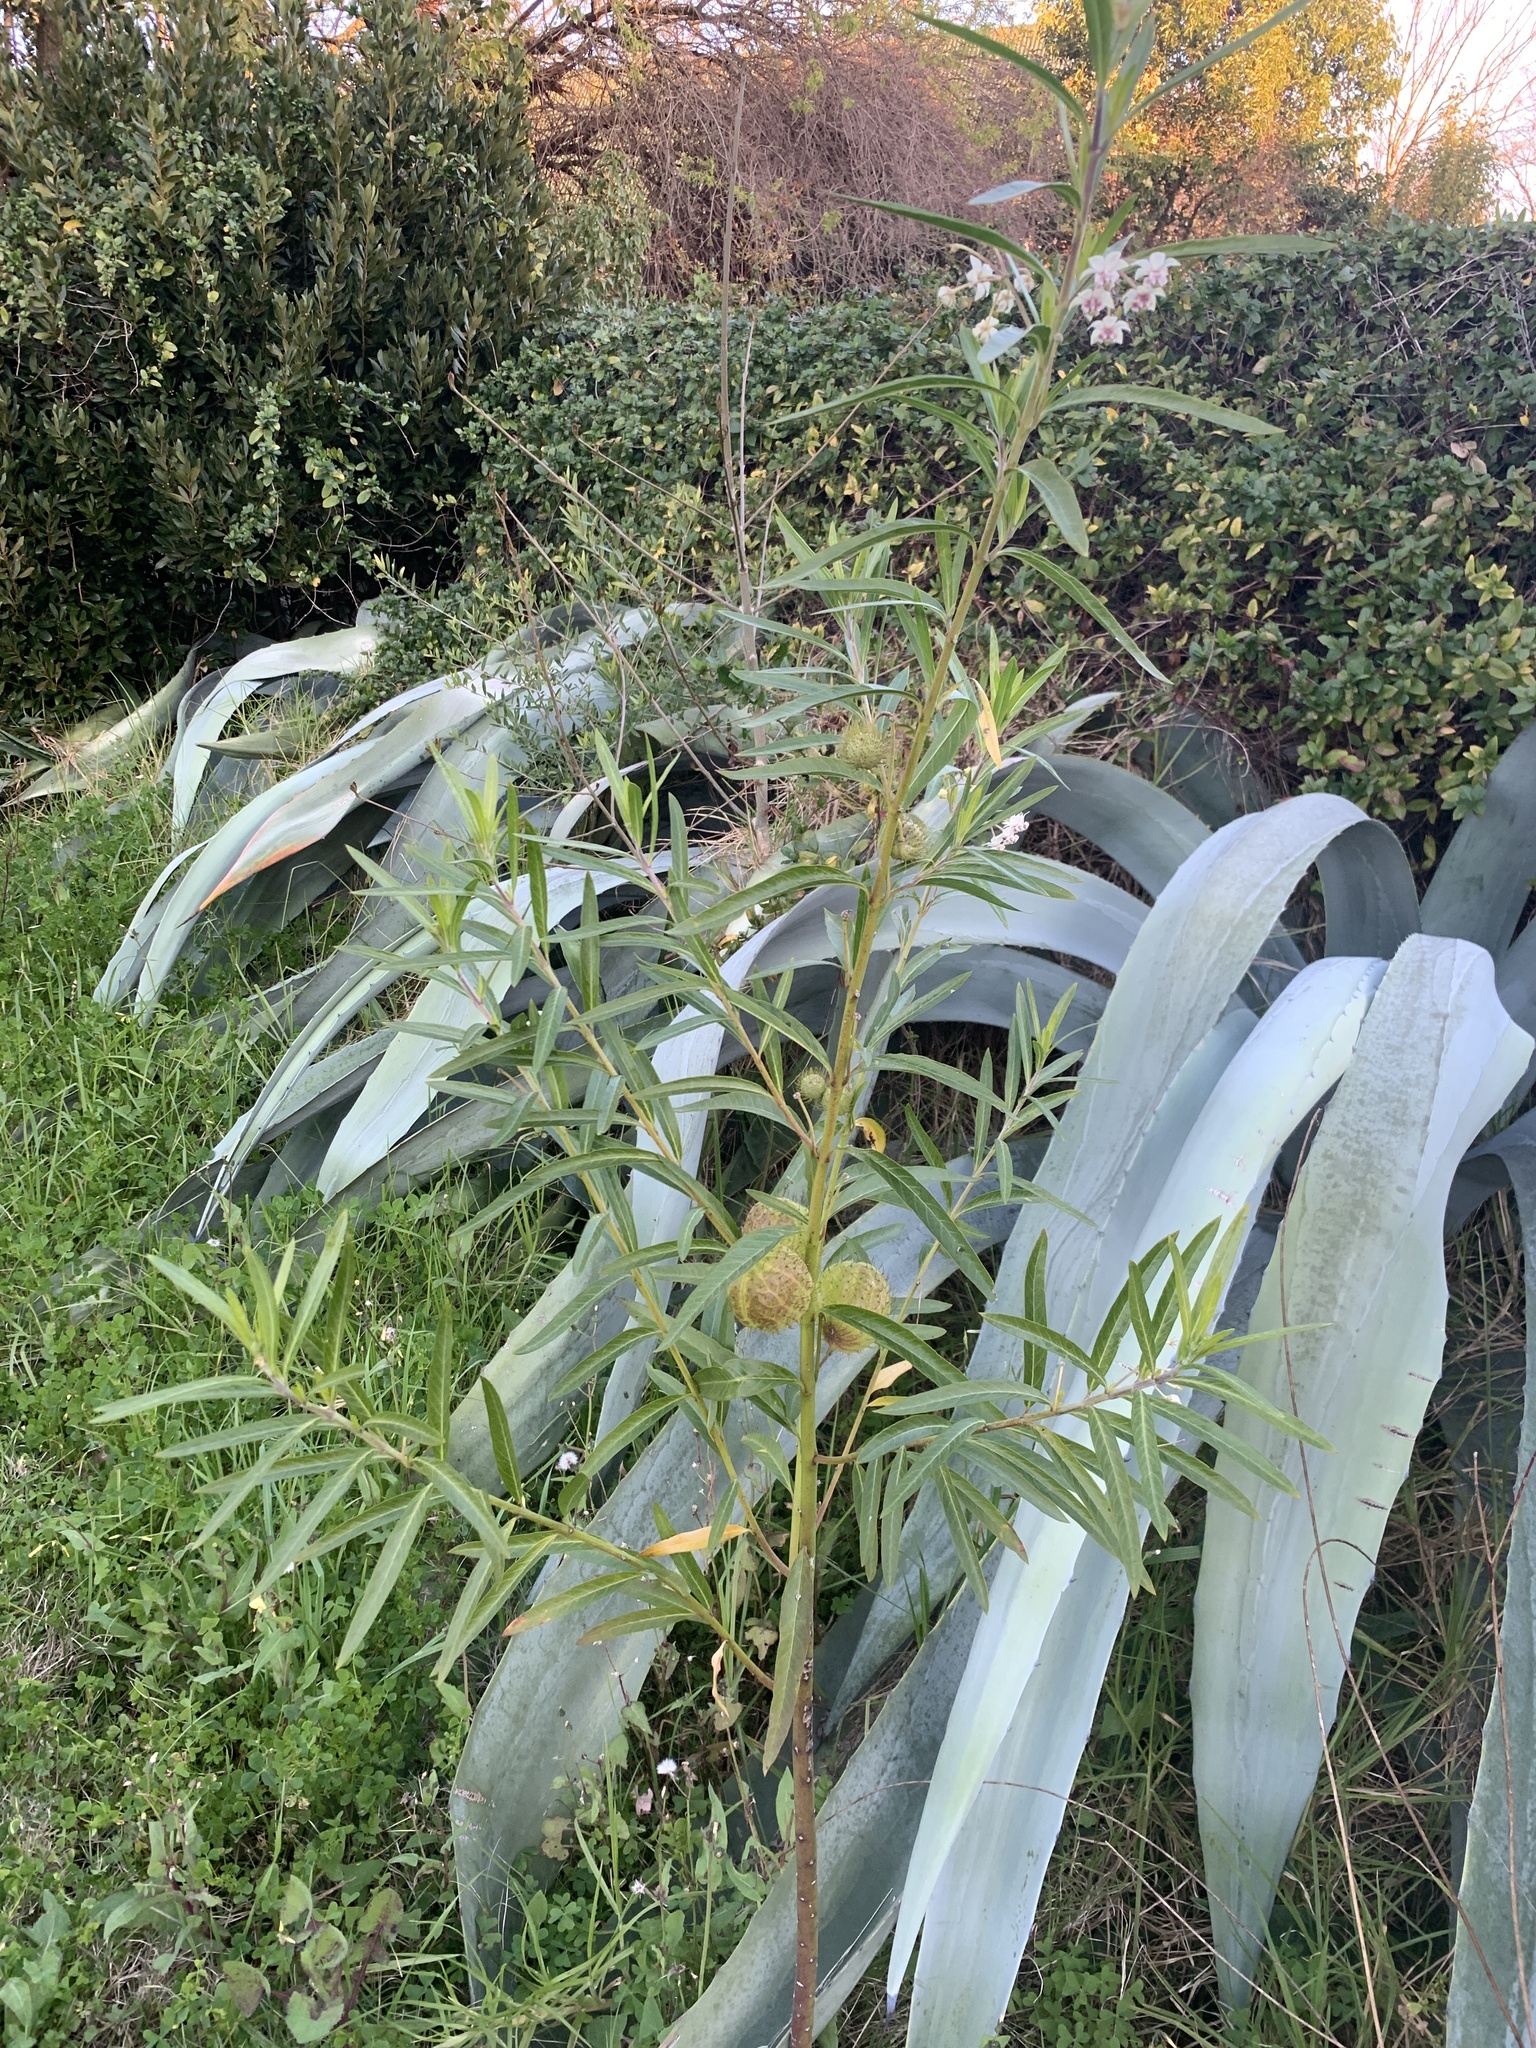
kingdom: Plantae
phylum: Tracheophyta
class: Magnoliopsida
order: Gentianales
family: Apocynaceae
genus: Gomphocarpus
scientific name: Gomphocarpus physocarpus
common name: Balloon cotton bush
